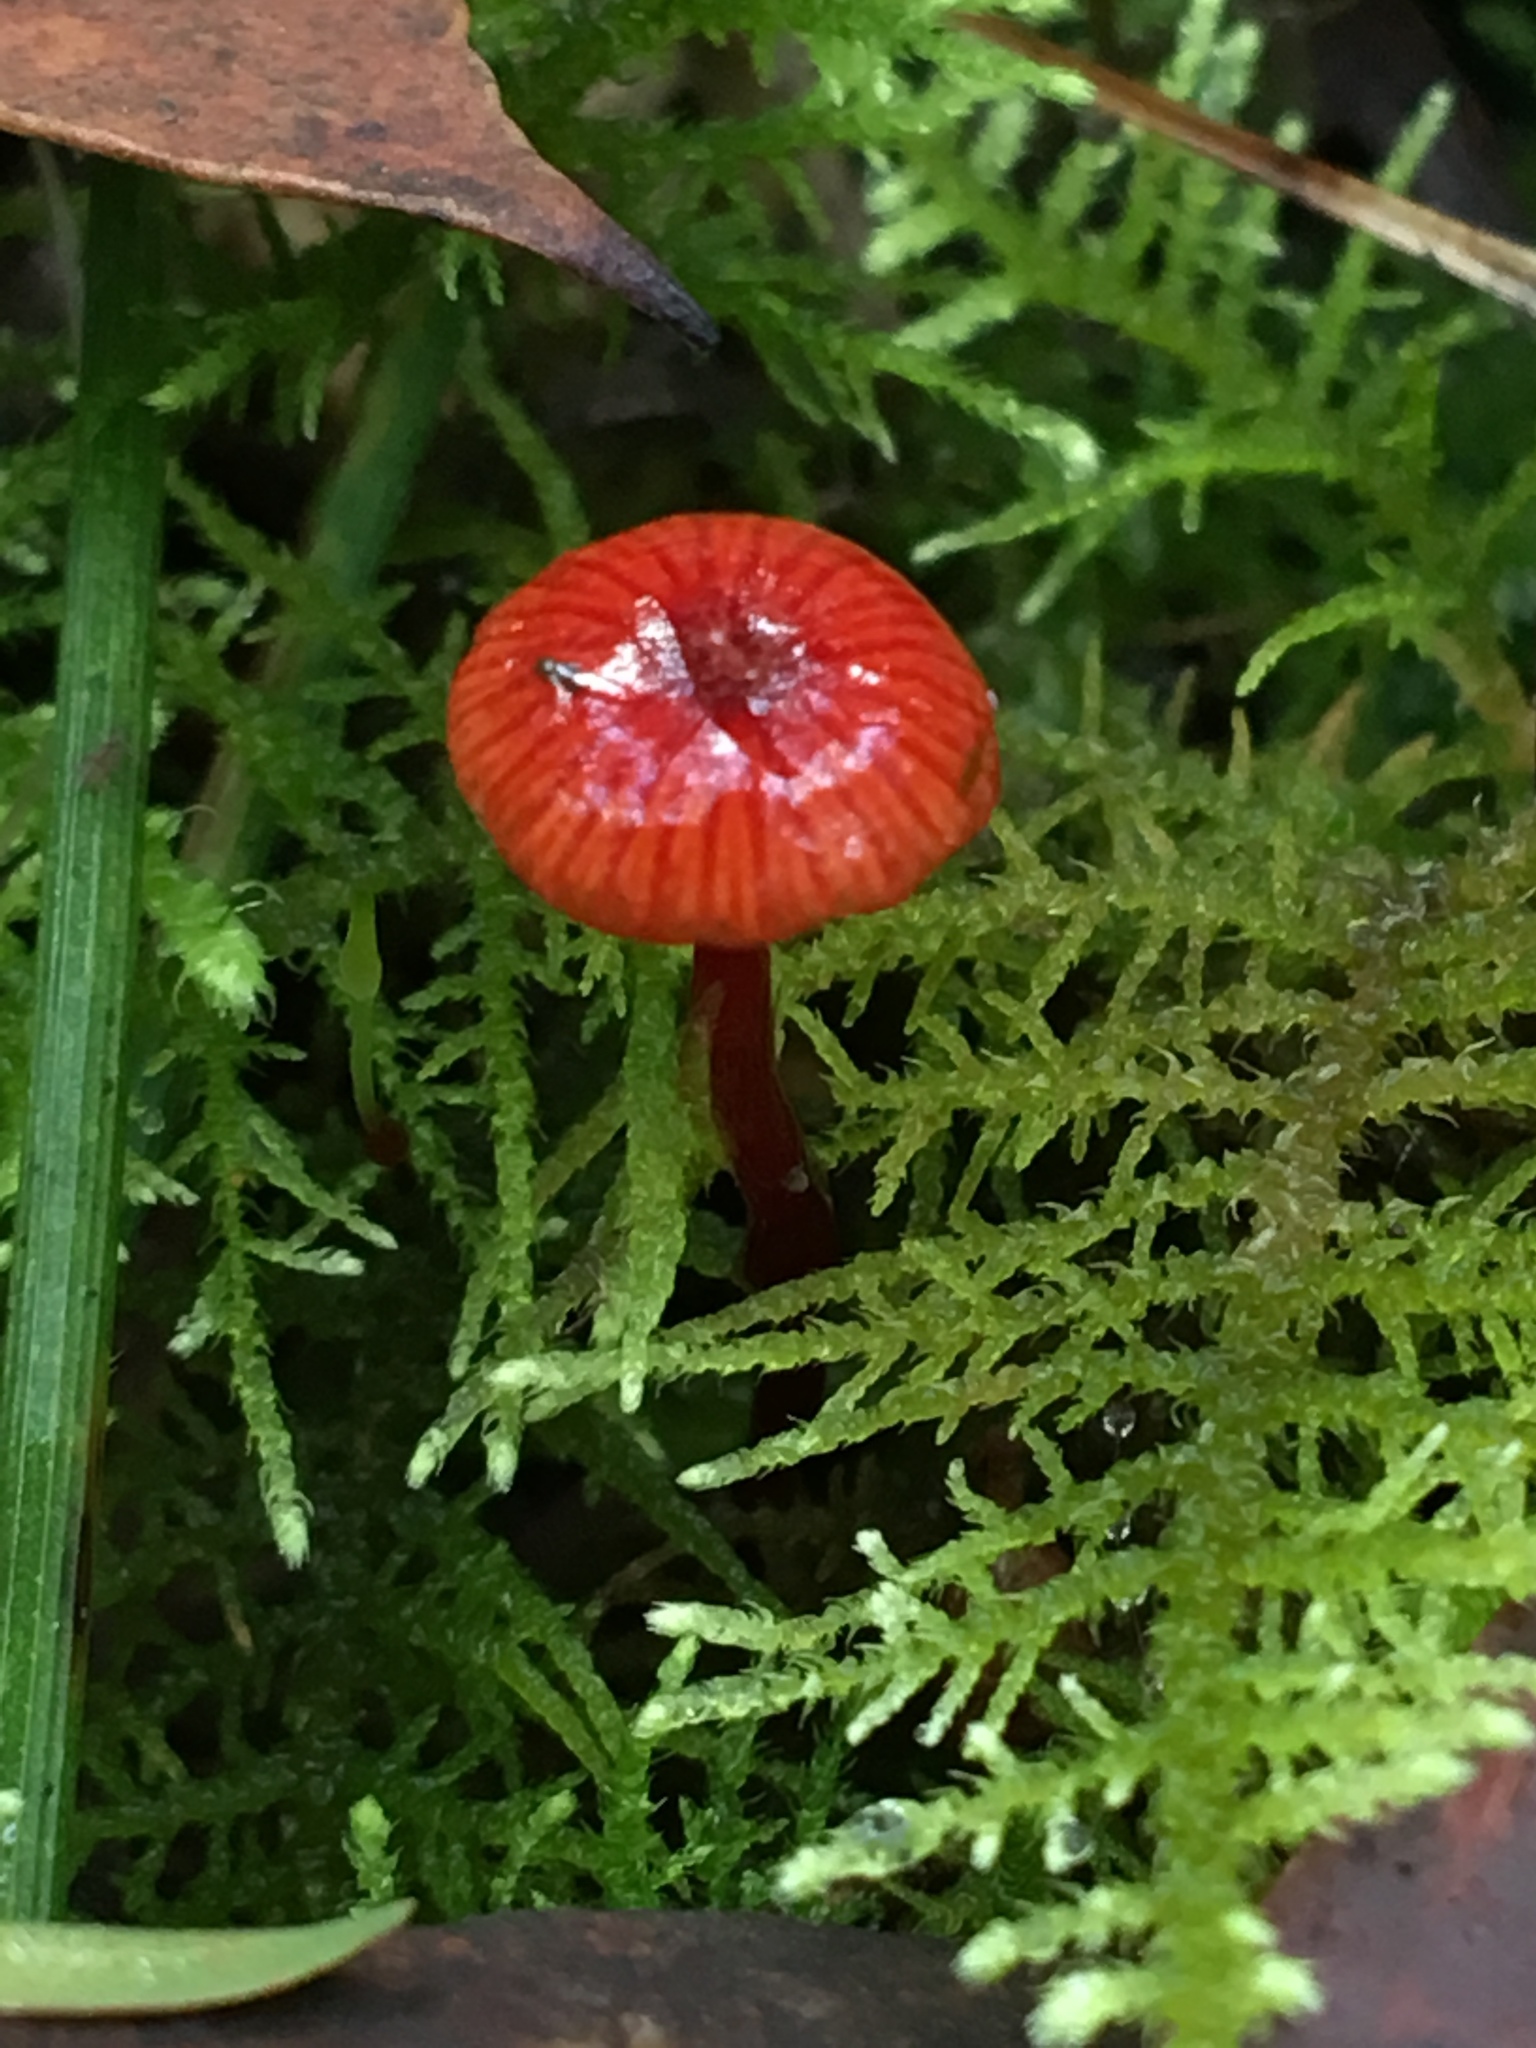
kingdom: Fungi
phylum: Basidiomycota
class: Agaricomycetes
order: Agaricales
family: Mycenaceae
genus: Cruentomycena
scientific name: Cruentomycena viscidocruenta
